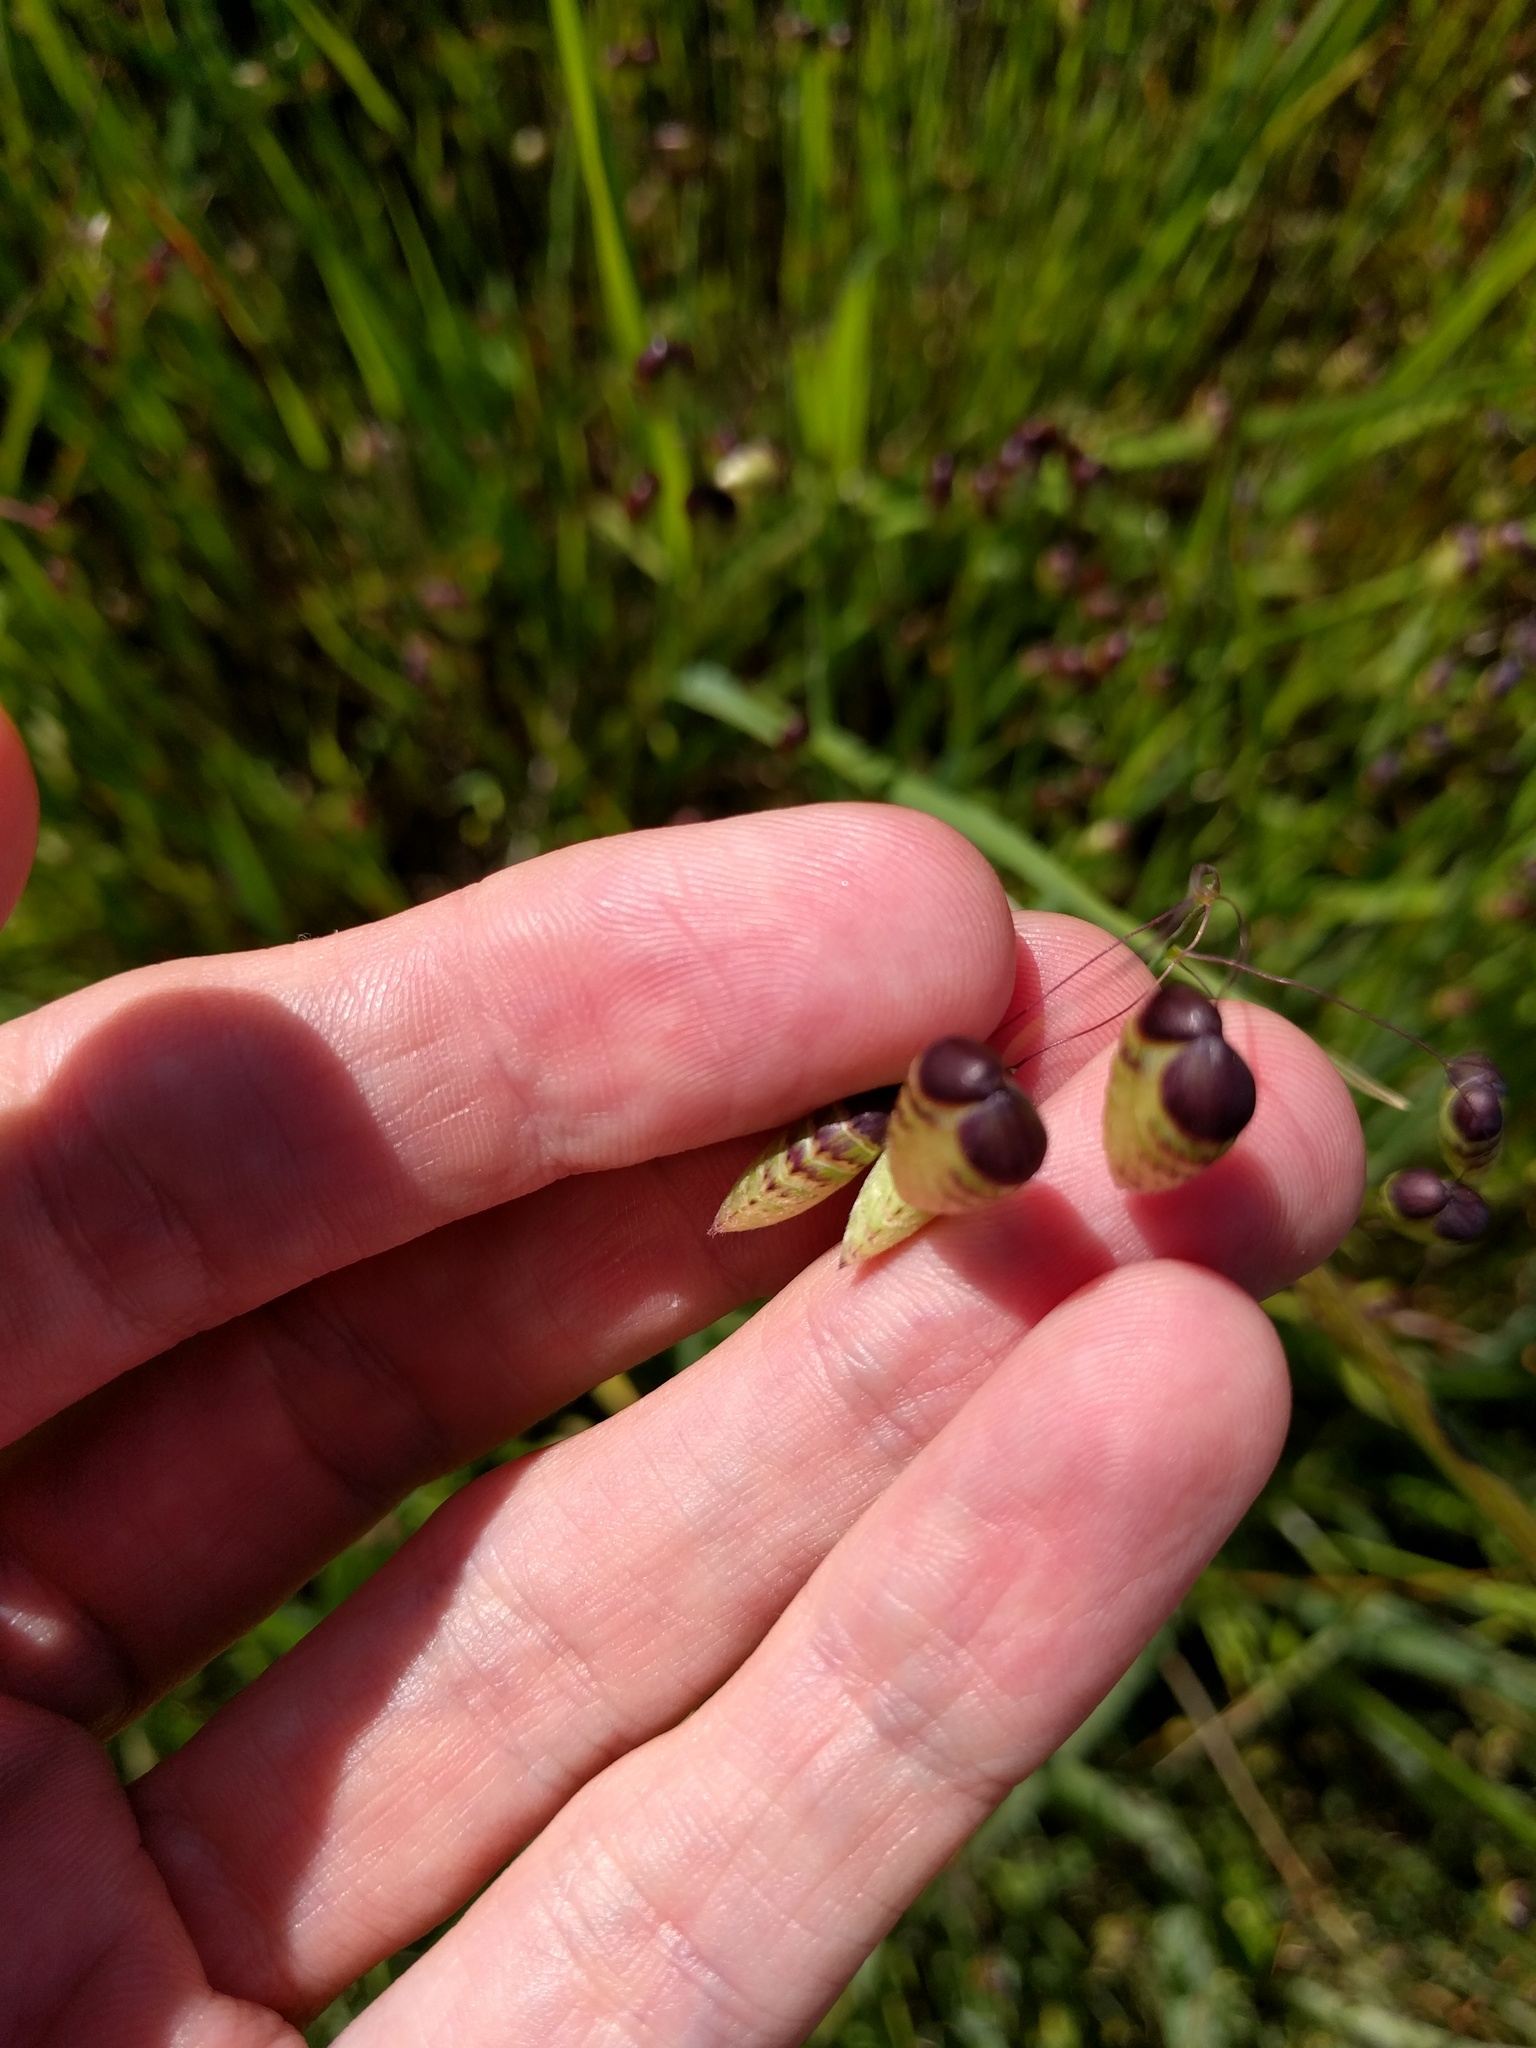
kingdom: Plantae
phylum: Tracheophyta
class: Liliopsida
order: Poales
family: Poaceae
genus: Briza
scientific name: Briza maxima
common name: Big quakinggrass
